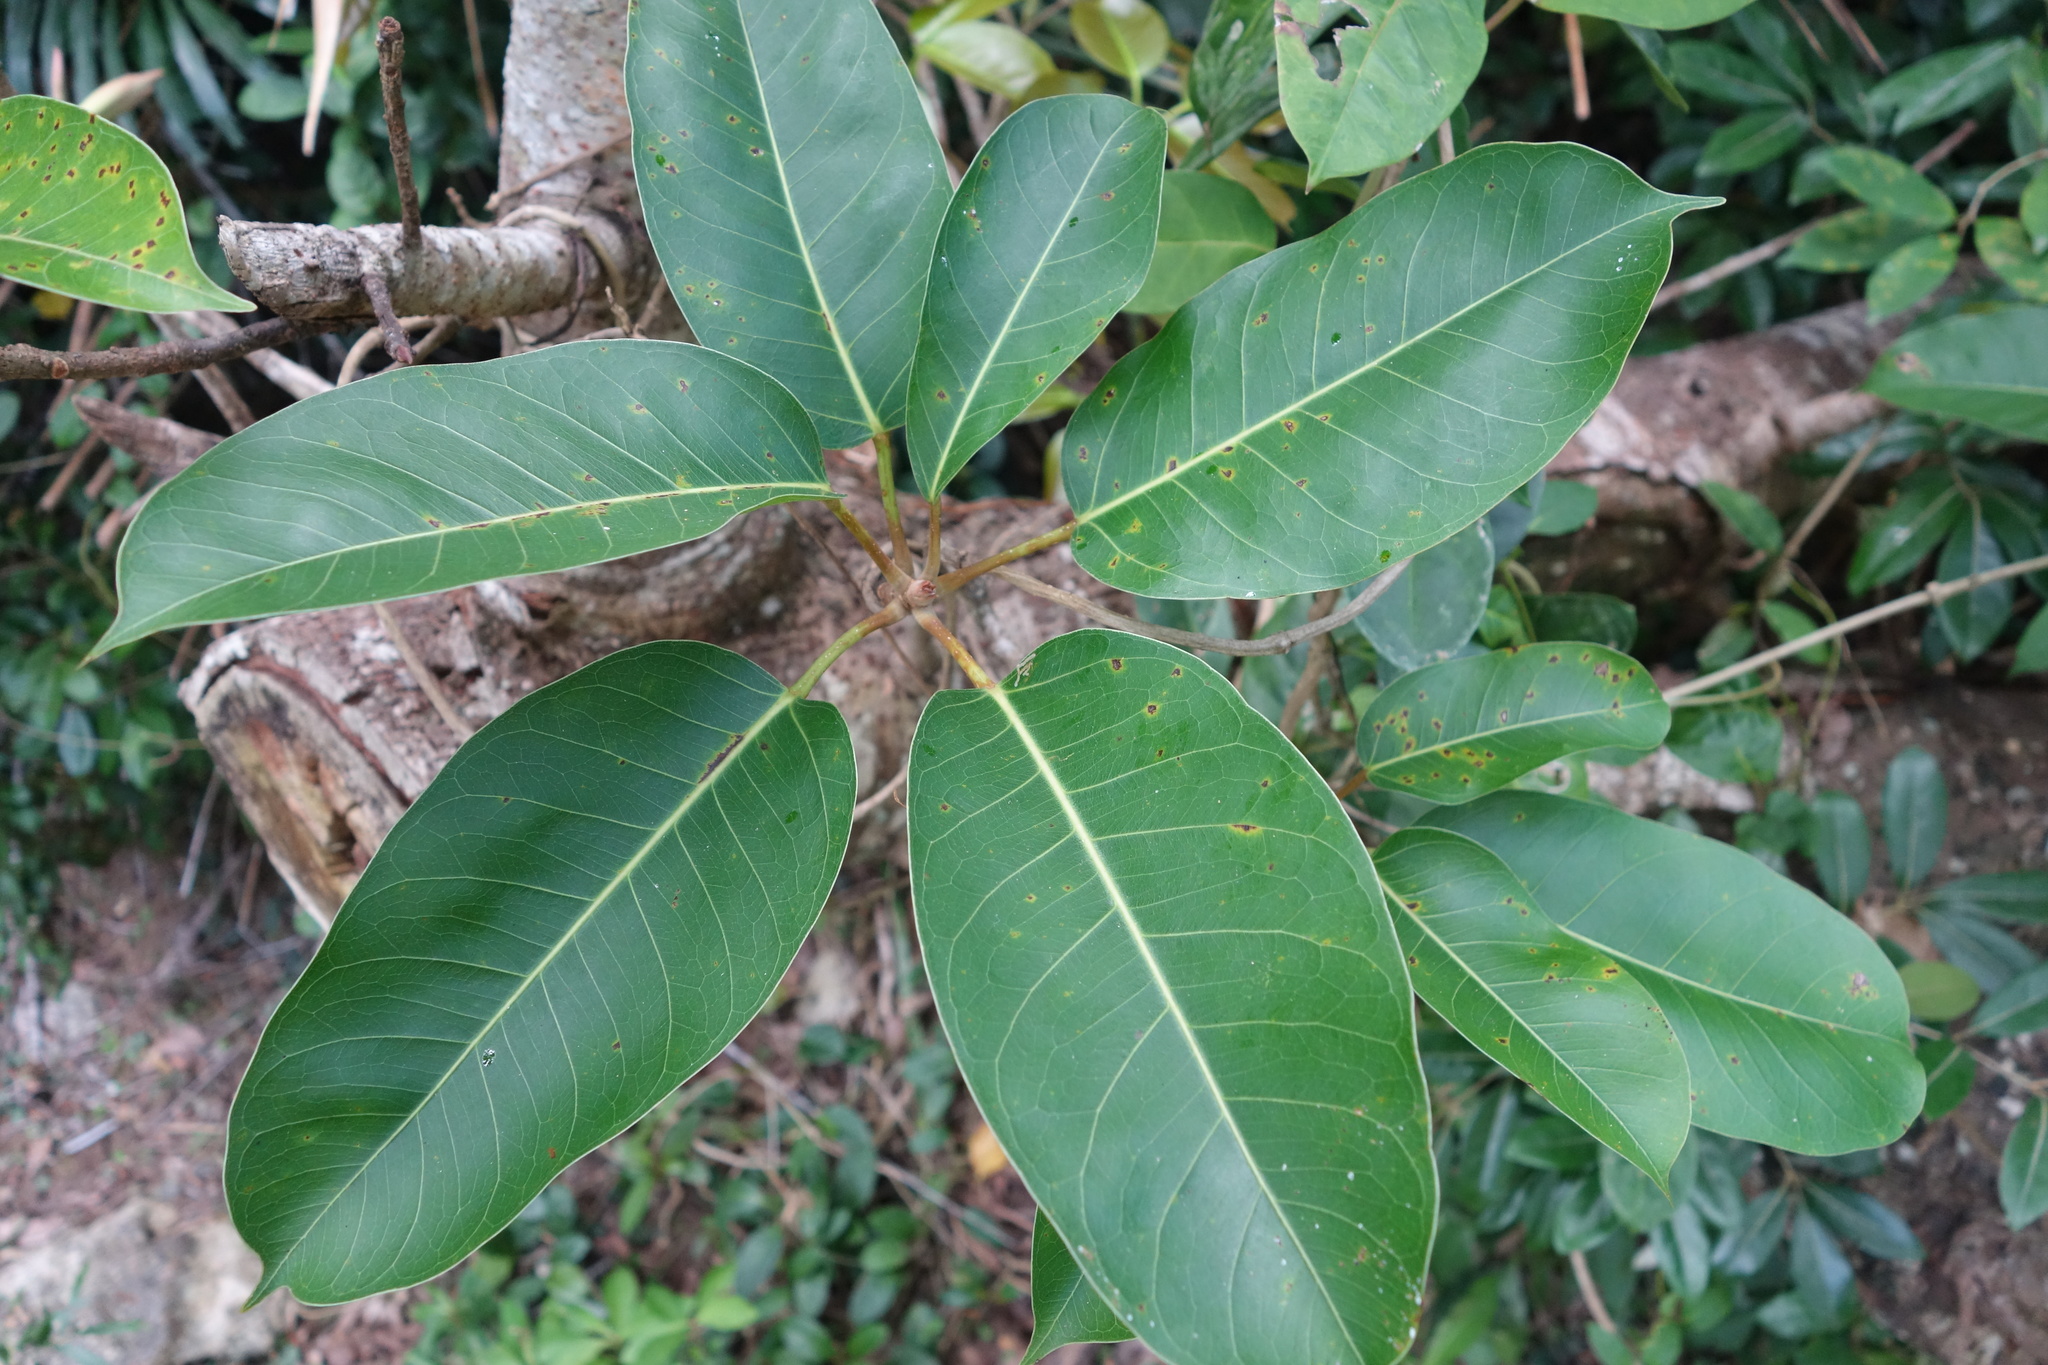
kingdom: Plantae
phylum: Tracheophyta
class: Magnoliopsida
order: Rosales
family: Moraceae
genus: Ficus
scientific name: Ficus caulocarpa
